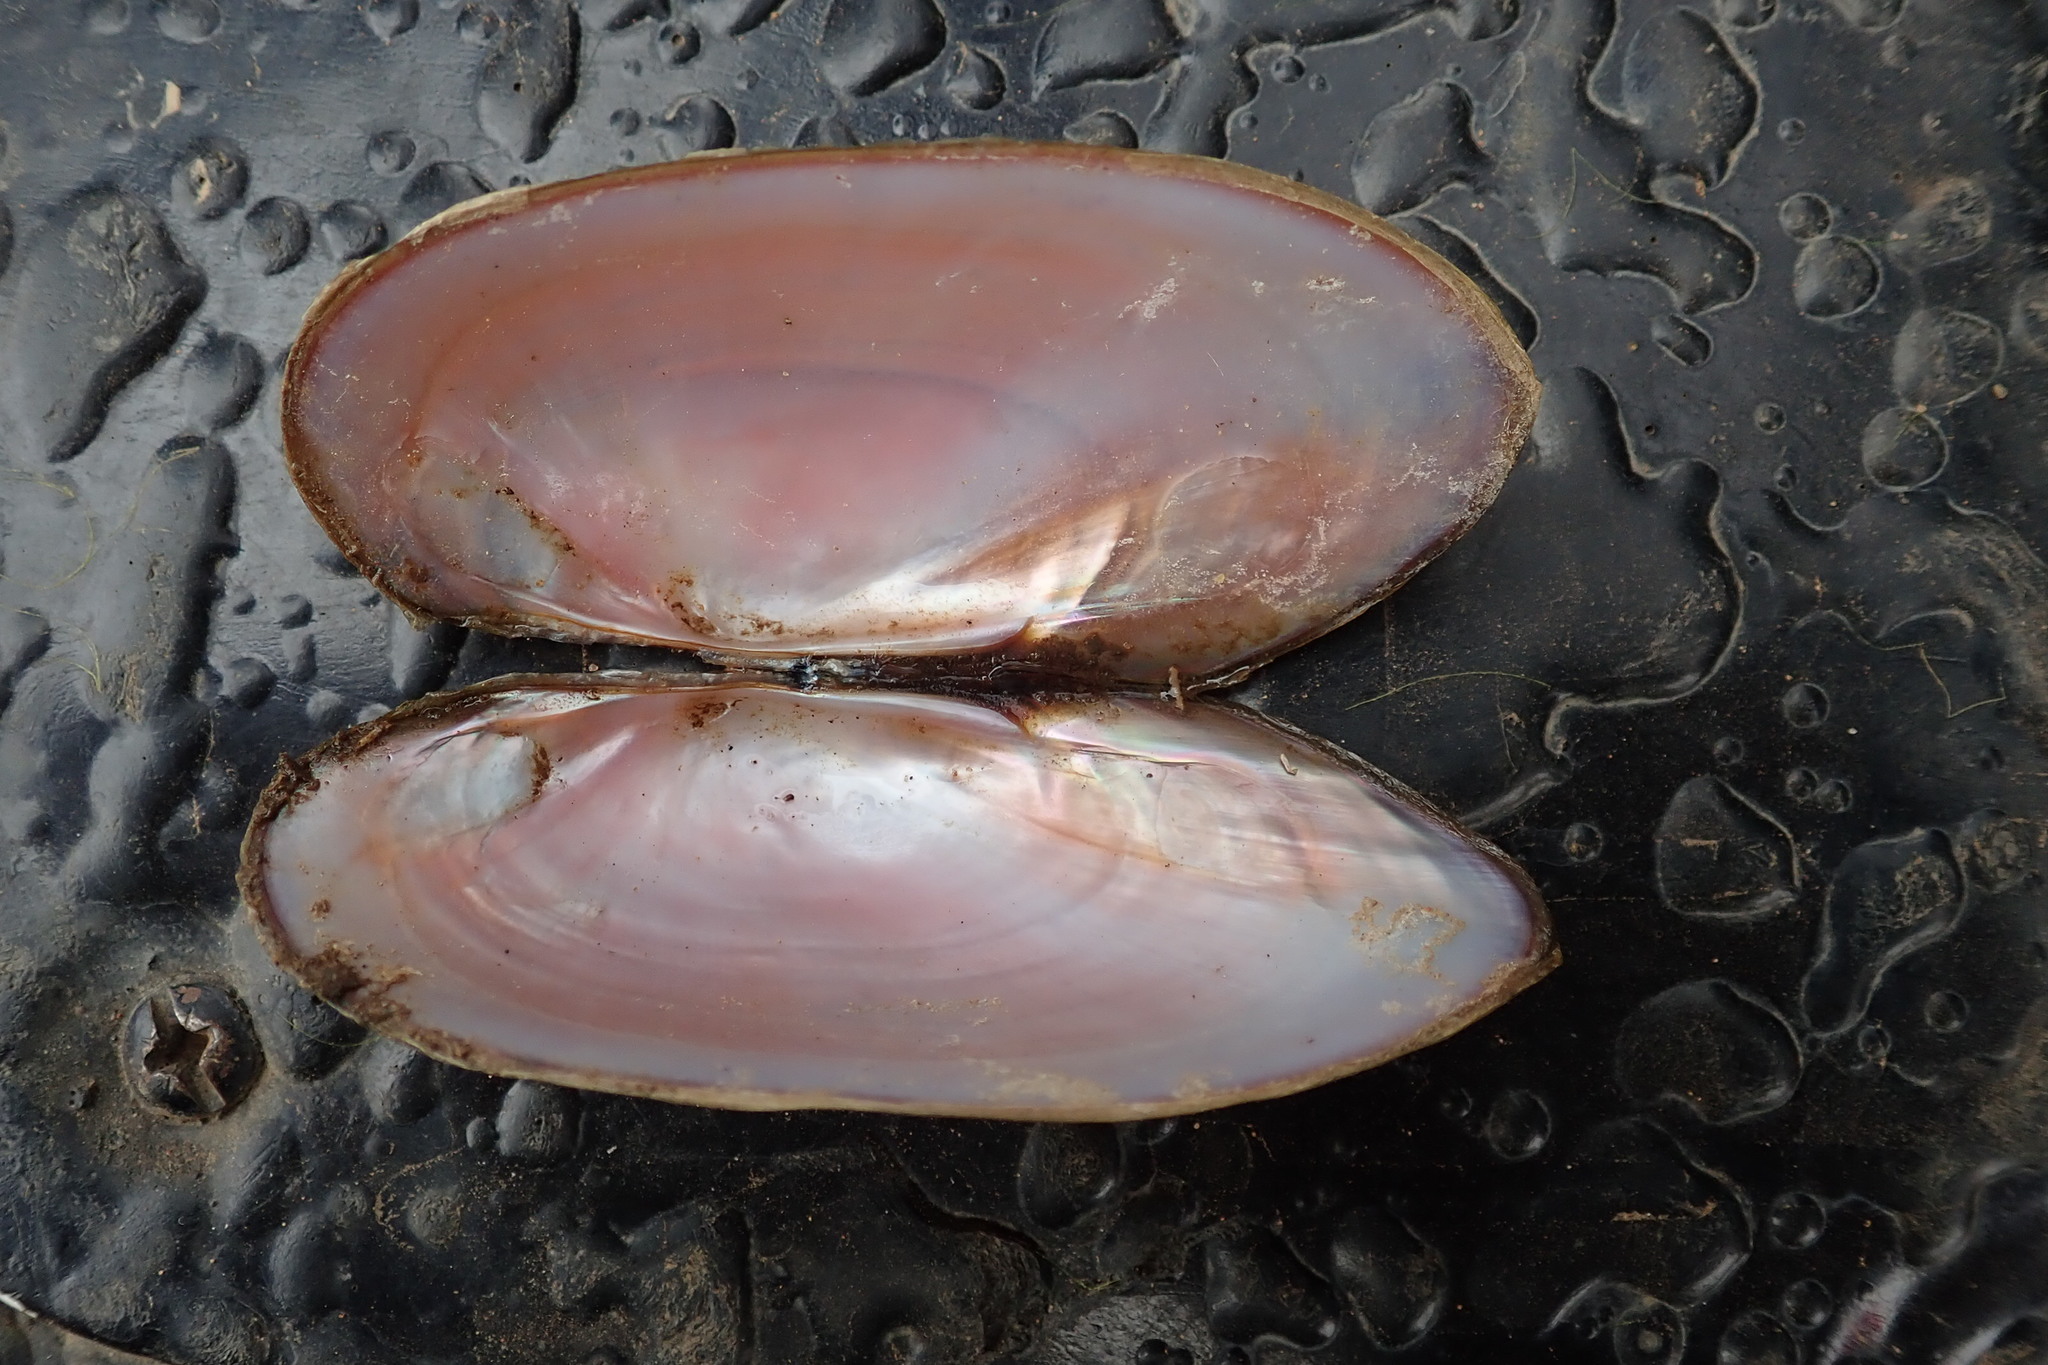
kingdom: Animalia
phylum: Mollusca
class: Bivalvia
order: Unionida
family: Iridinidae
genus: Chambardia
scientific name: Chambardia wahlbergi
